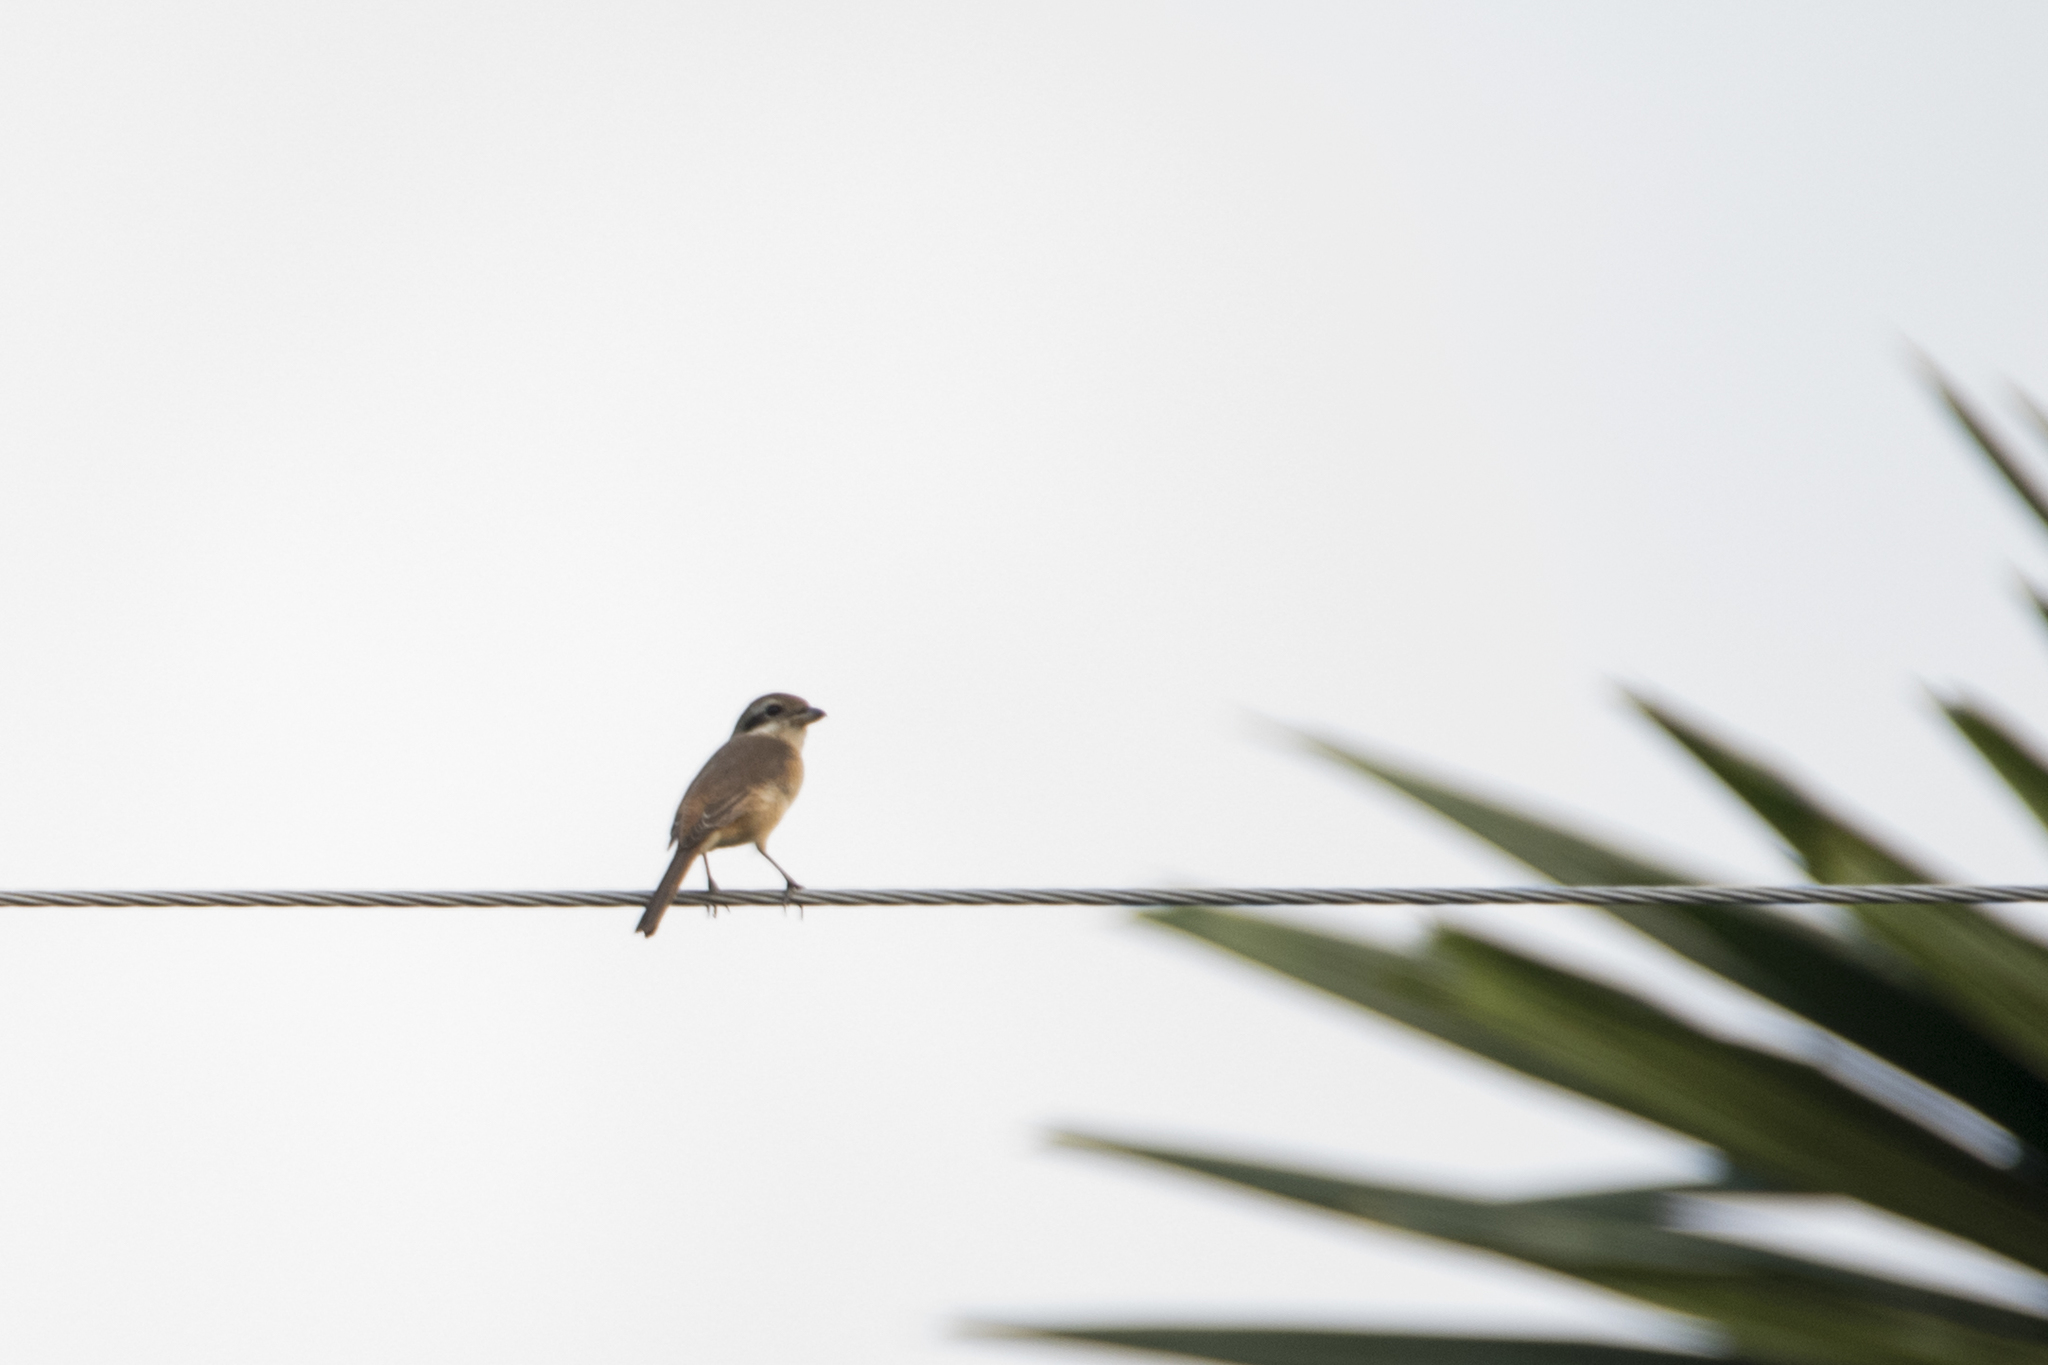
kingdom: Animalia
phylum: Chordata
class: Aves
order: Passeriformes
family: Laniidae
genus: Lanius
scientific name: Lanius cristatus
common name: Brown shrike
